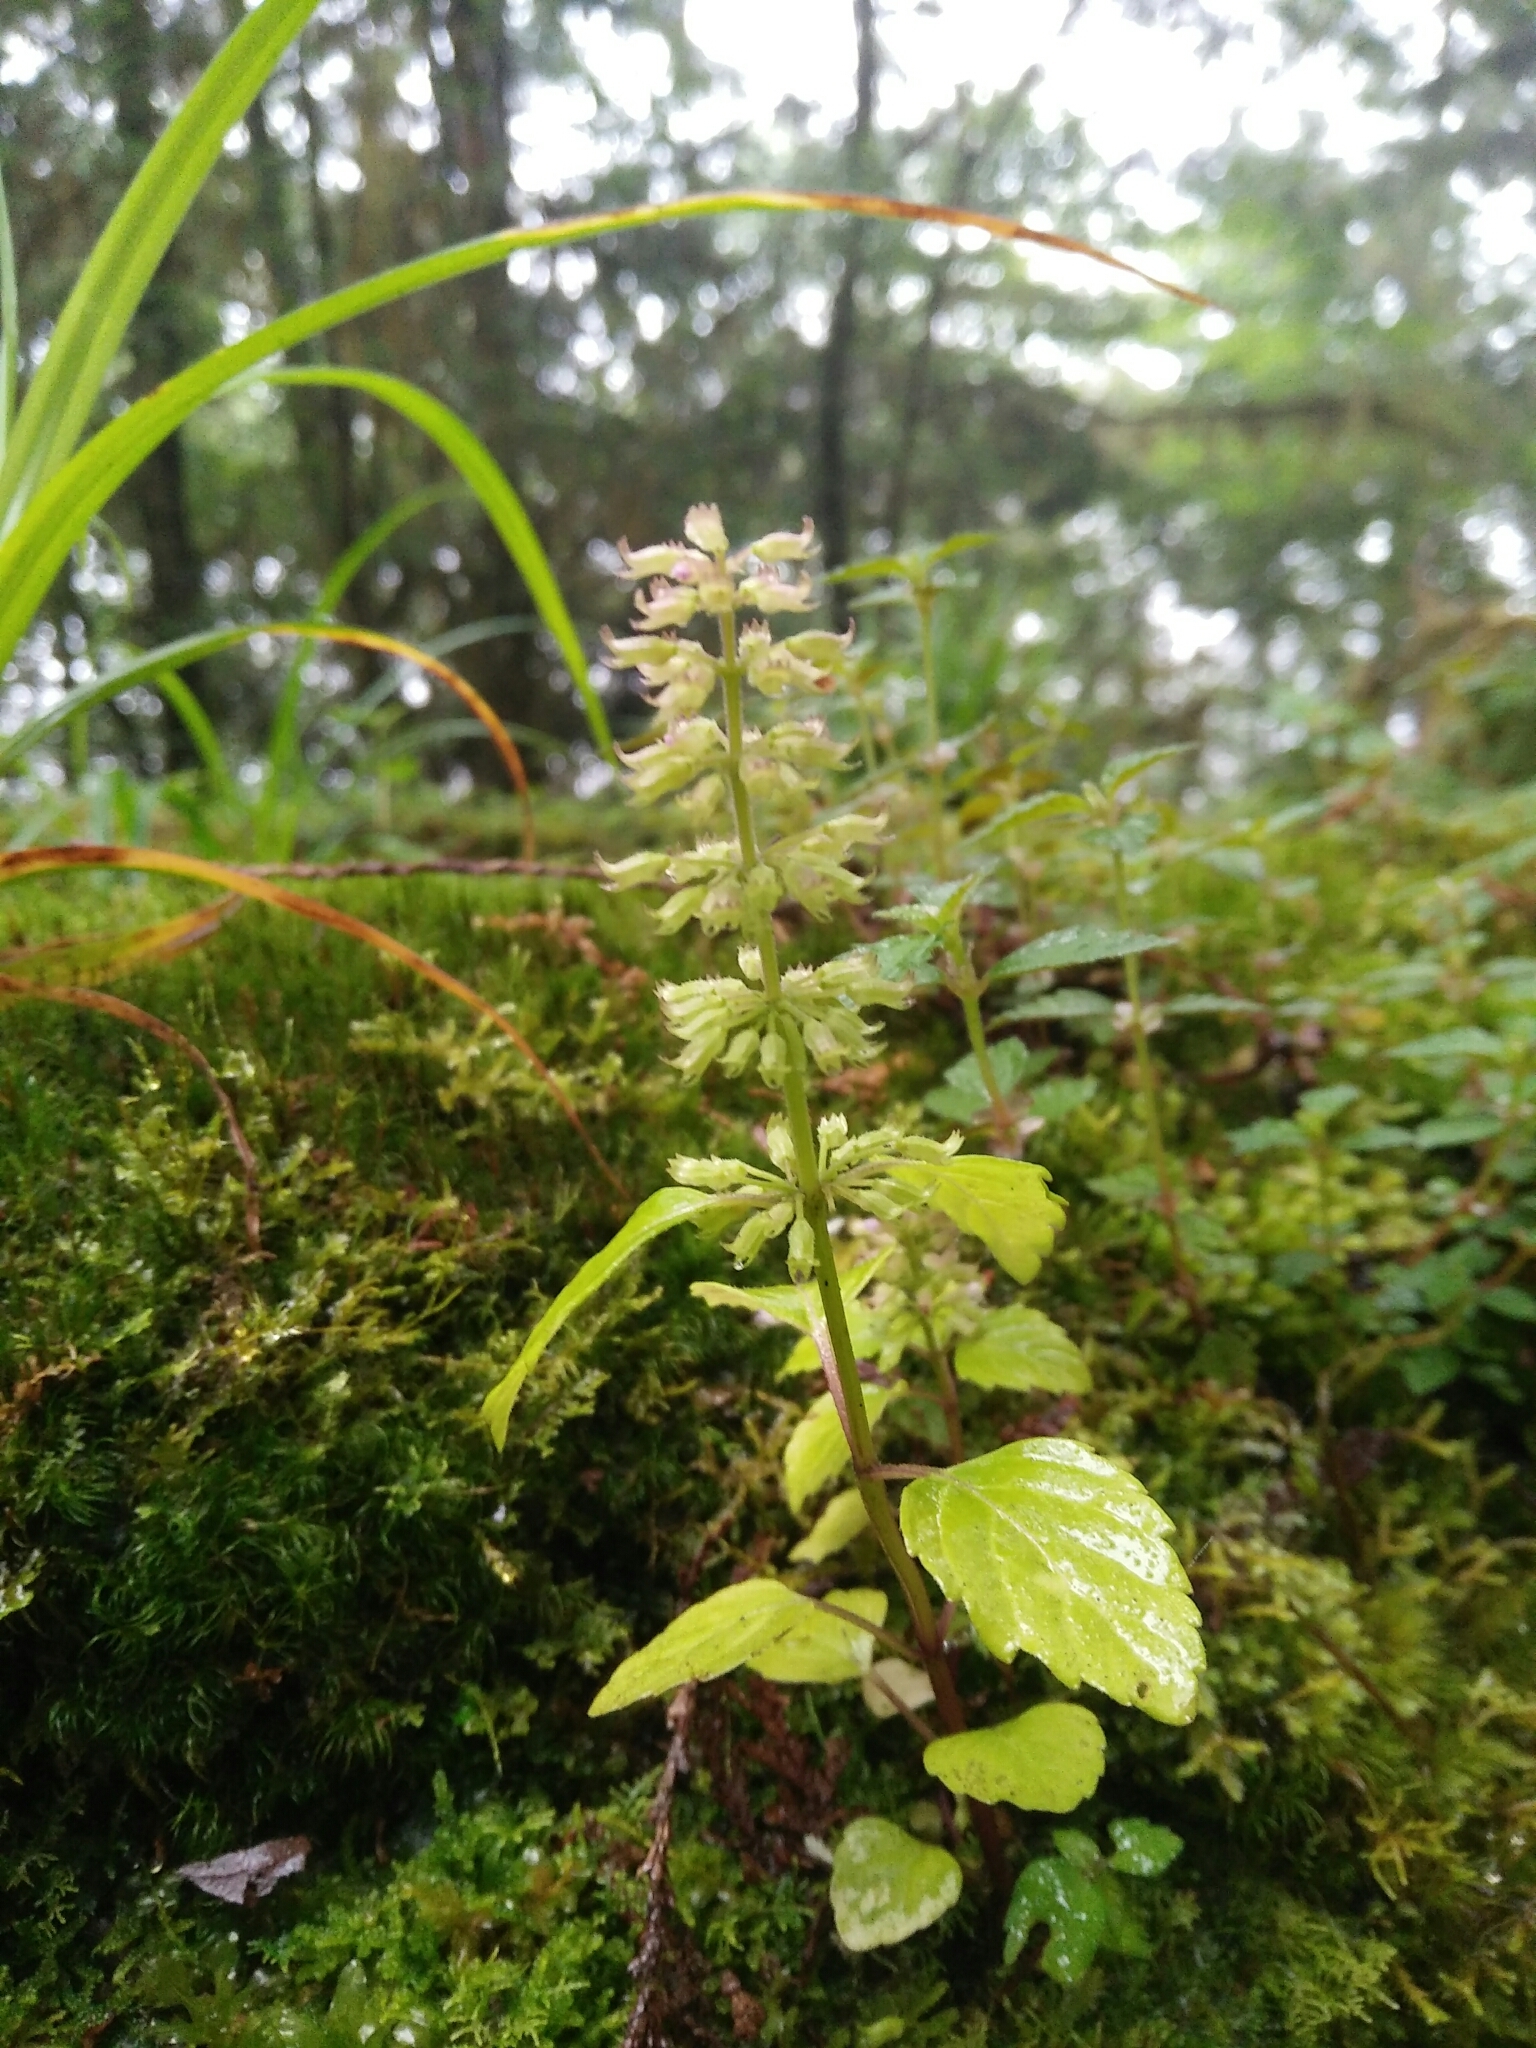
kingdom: Plantae
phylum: Tracheophyta
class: Magnoliopsida
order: Lamiales
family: Lamiaceae
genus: Clinopodium
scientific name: Clinopodium gracile
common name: Slender wild basil
